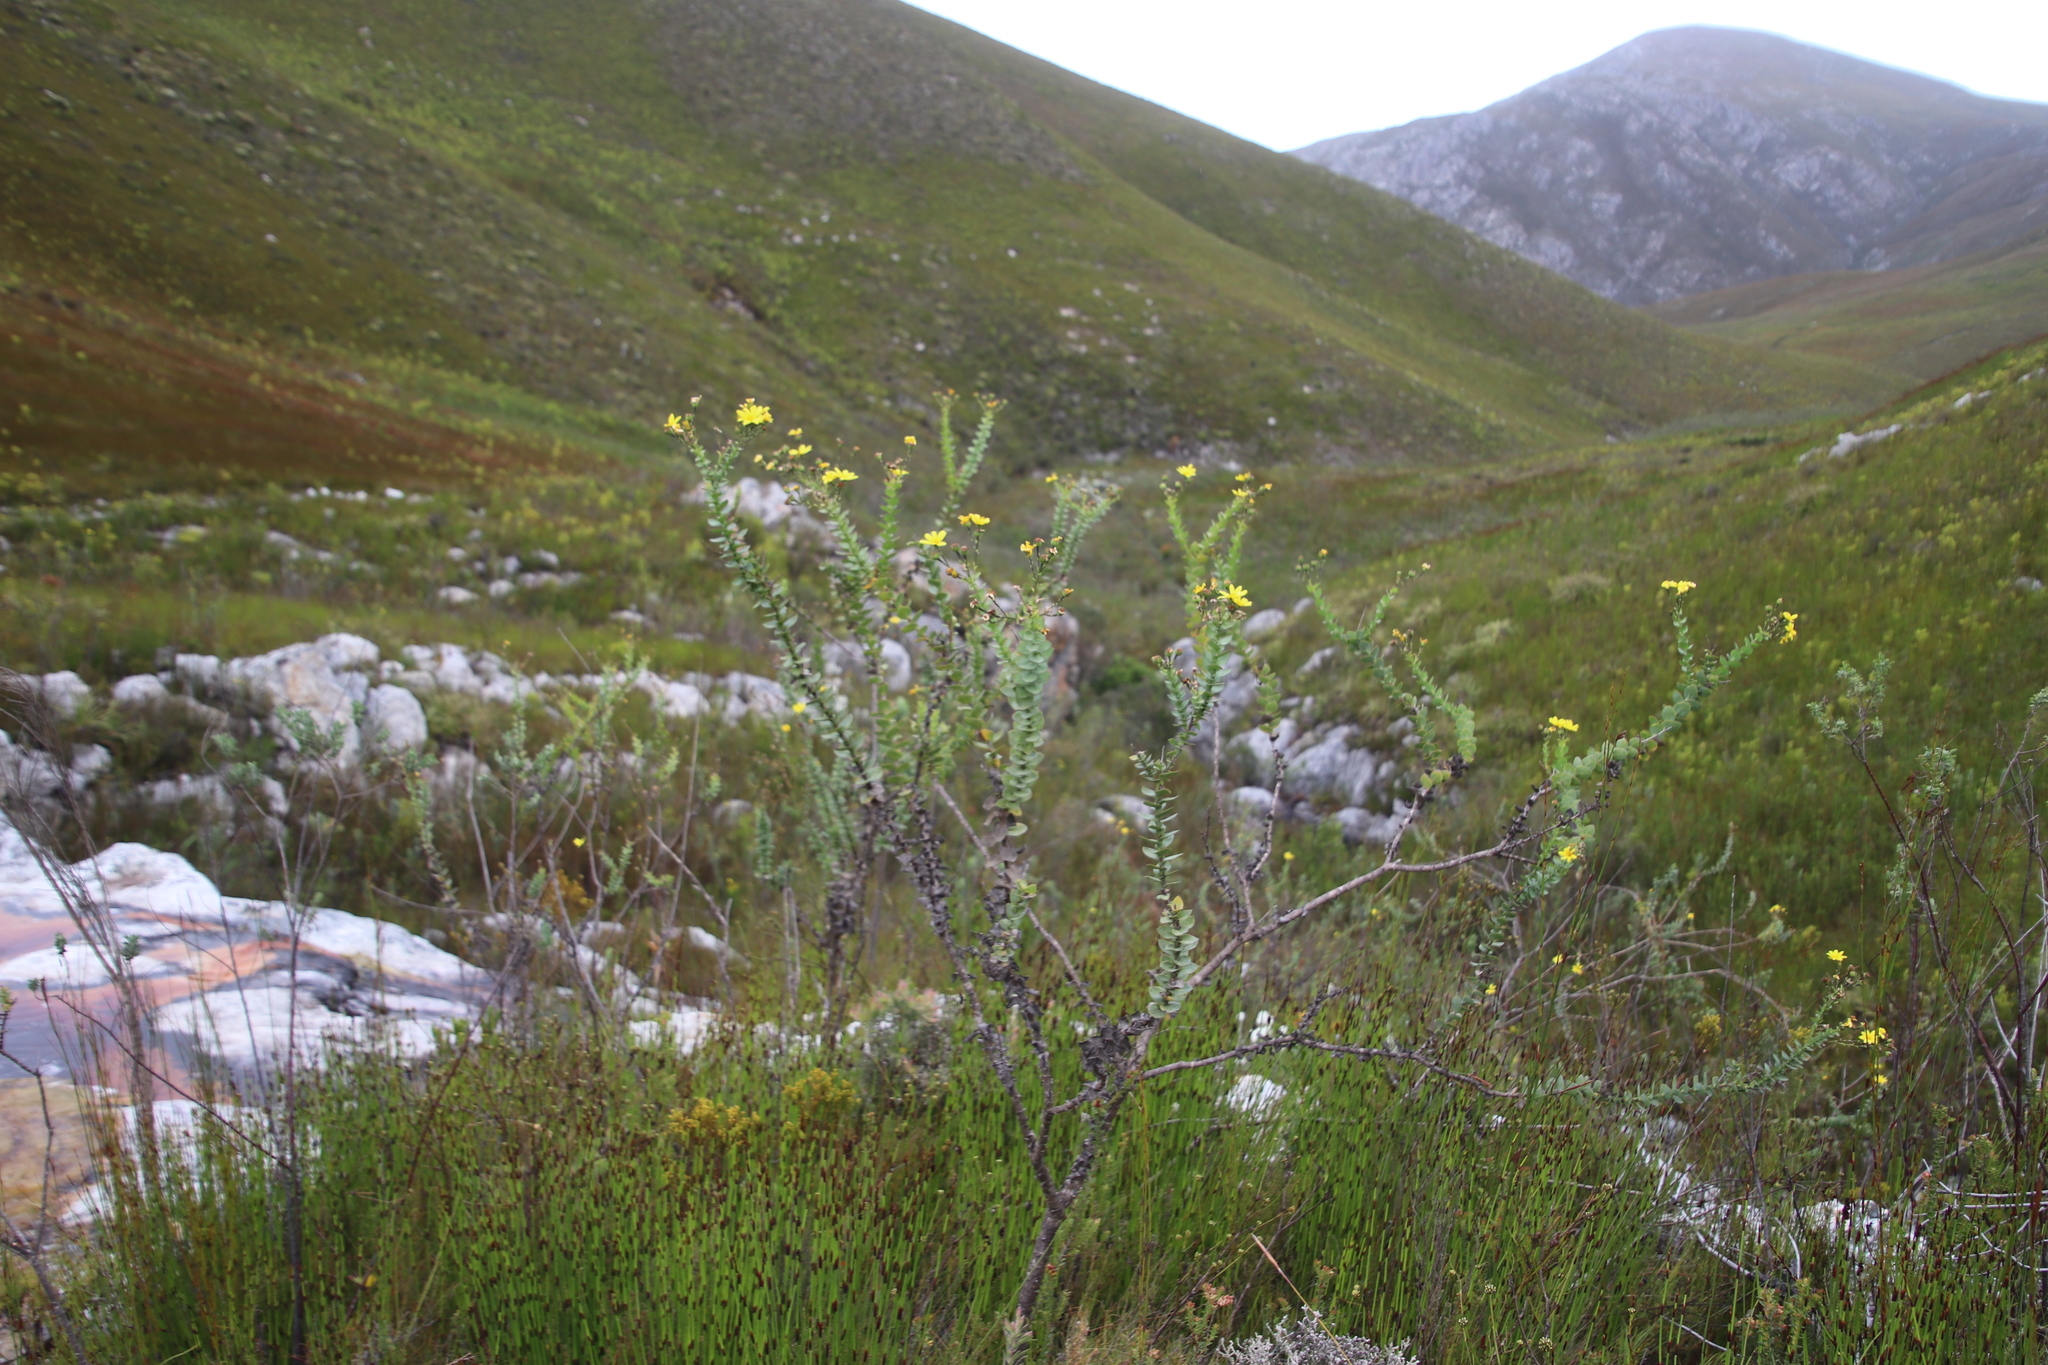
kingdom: Plantae
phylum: Tracheophyta
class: Magnoliopsida
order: Asterales
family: Asteraceae
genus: Osteospermum
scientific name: Osteospermum rotundifolium
